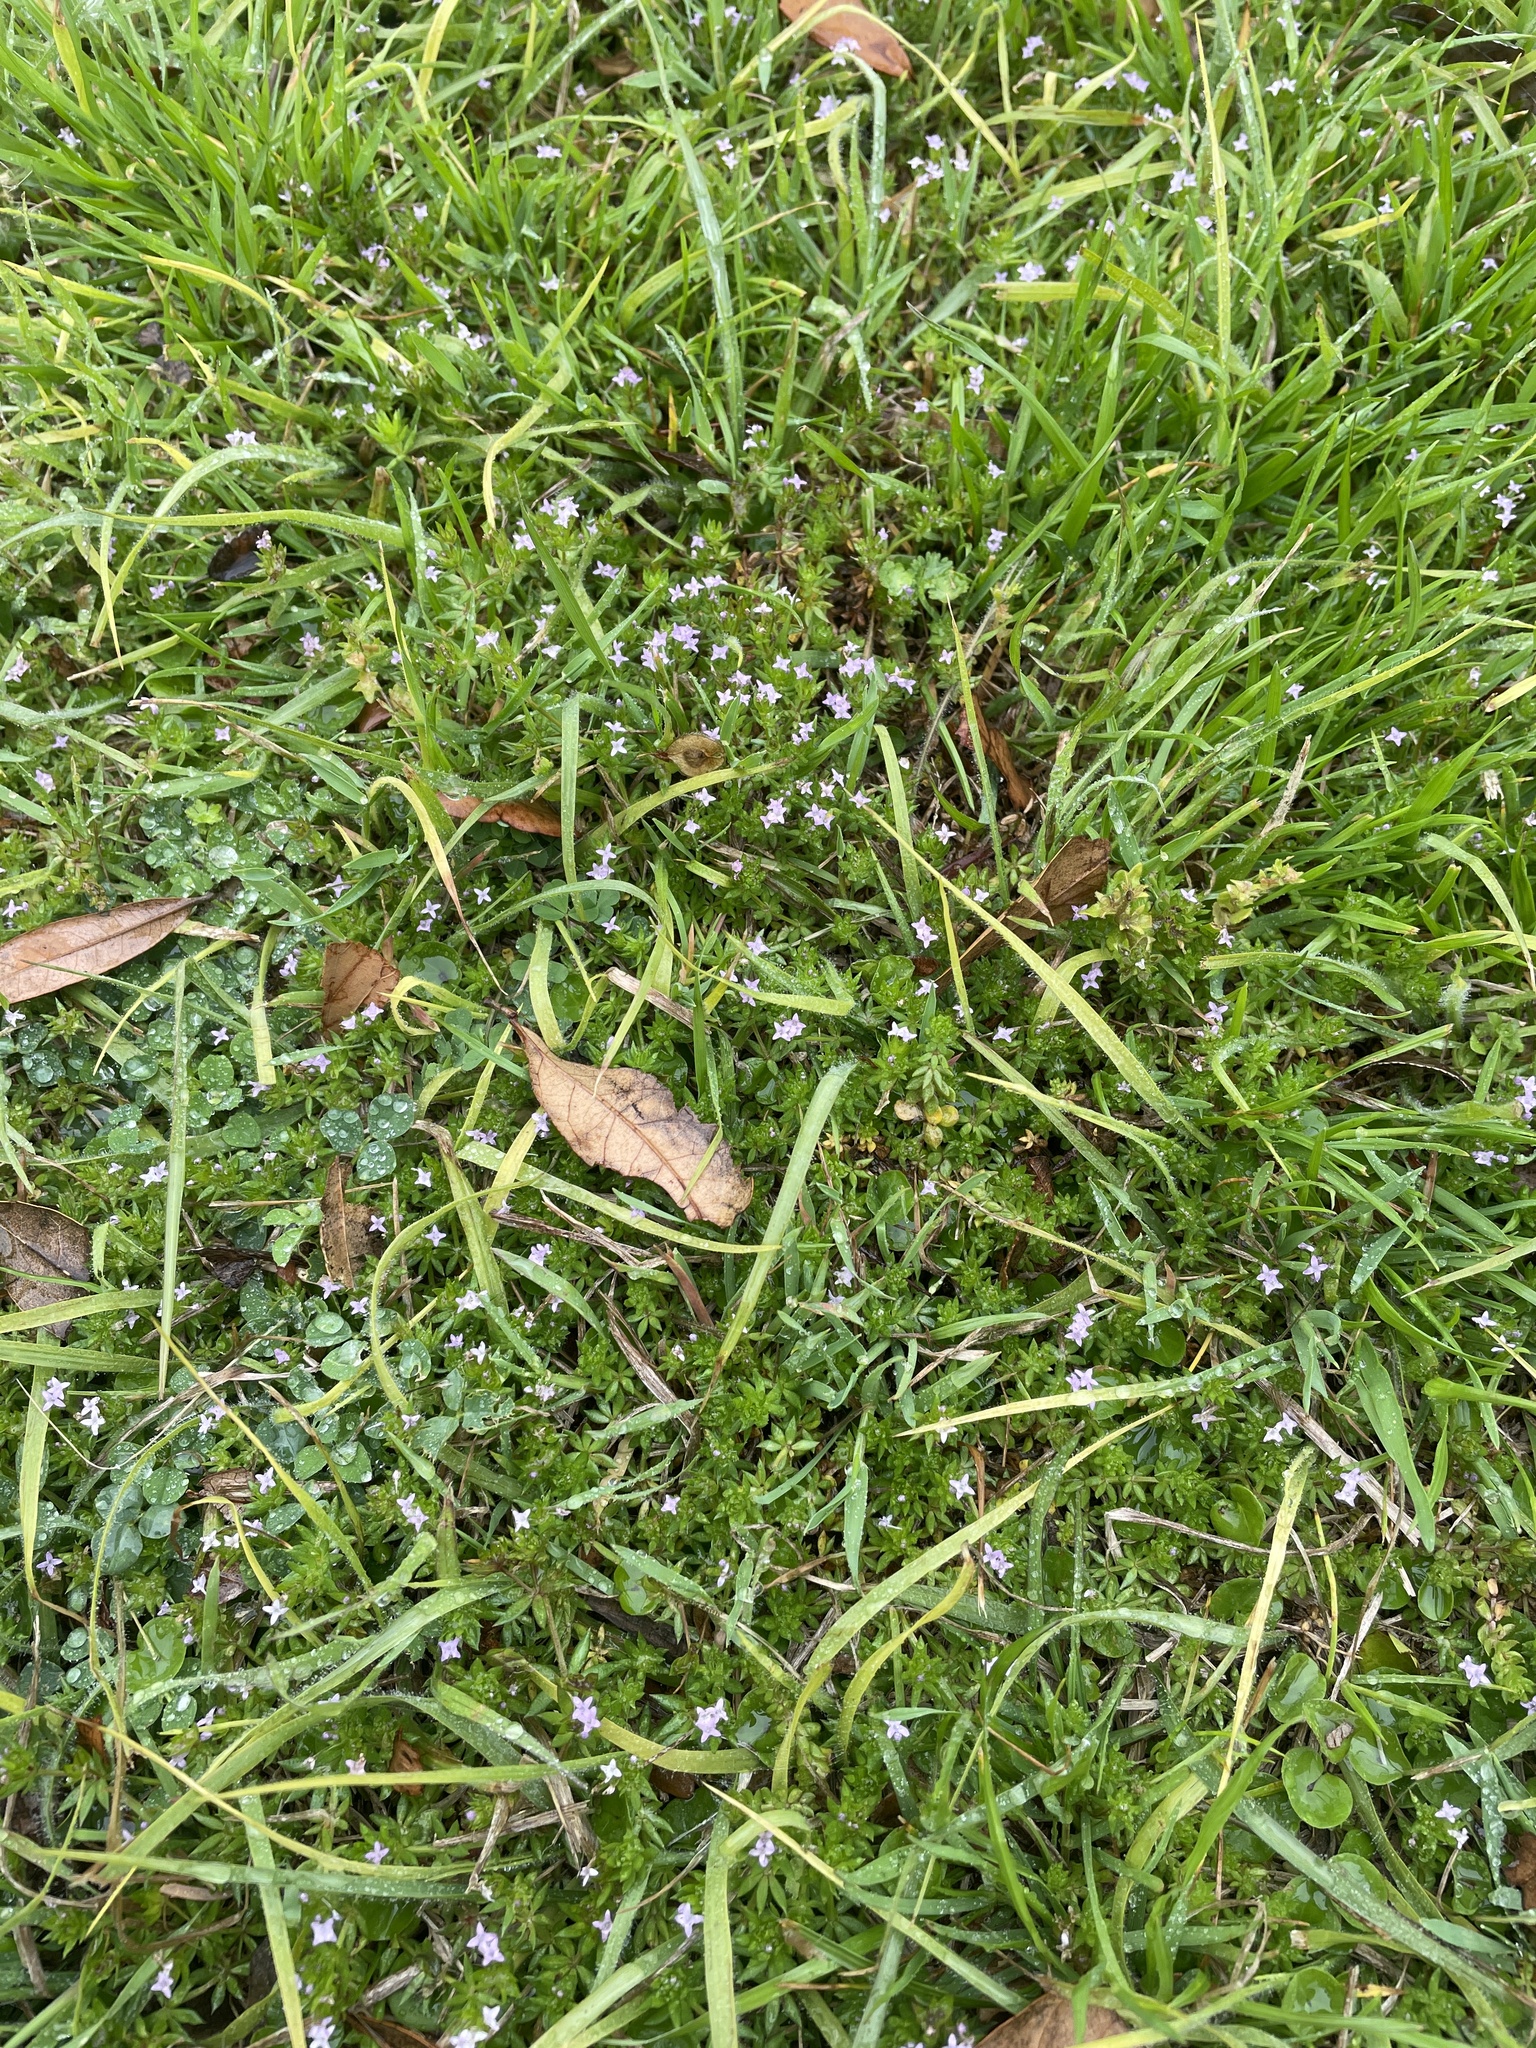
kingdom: Plantae
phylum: Tracheophyta
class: Magnoliopsida
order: Gentianales
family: Rubiaceae
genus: Sherardia
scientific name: Sherardia arvensis
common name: Field madder
